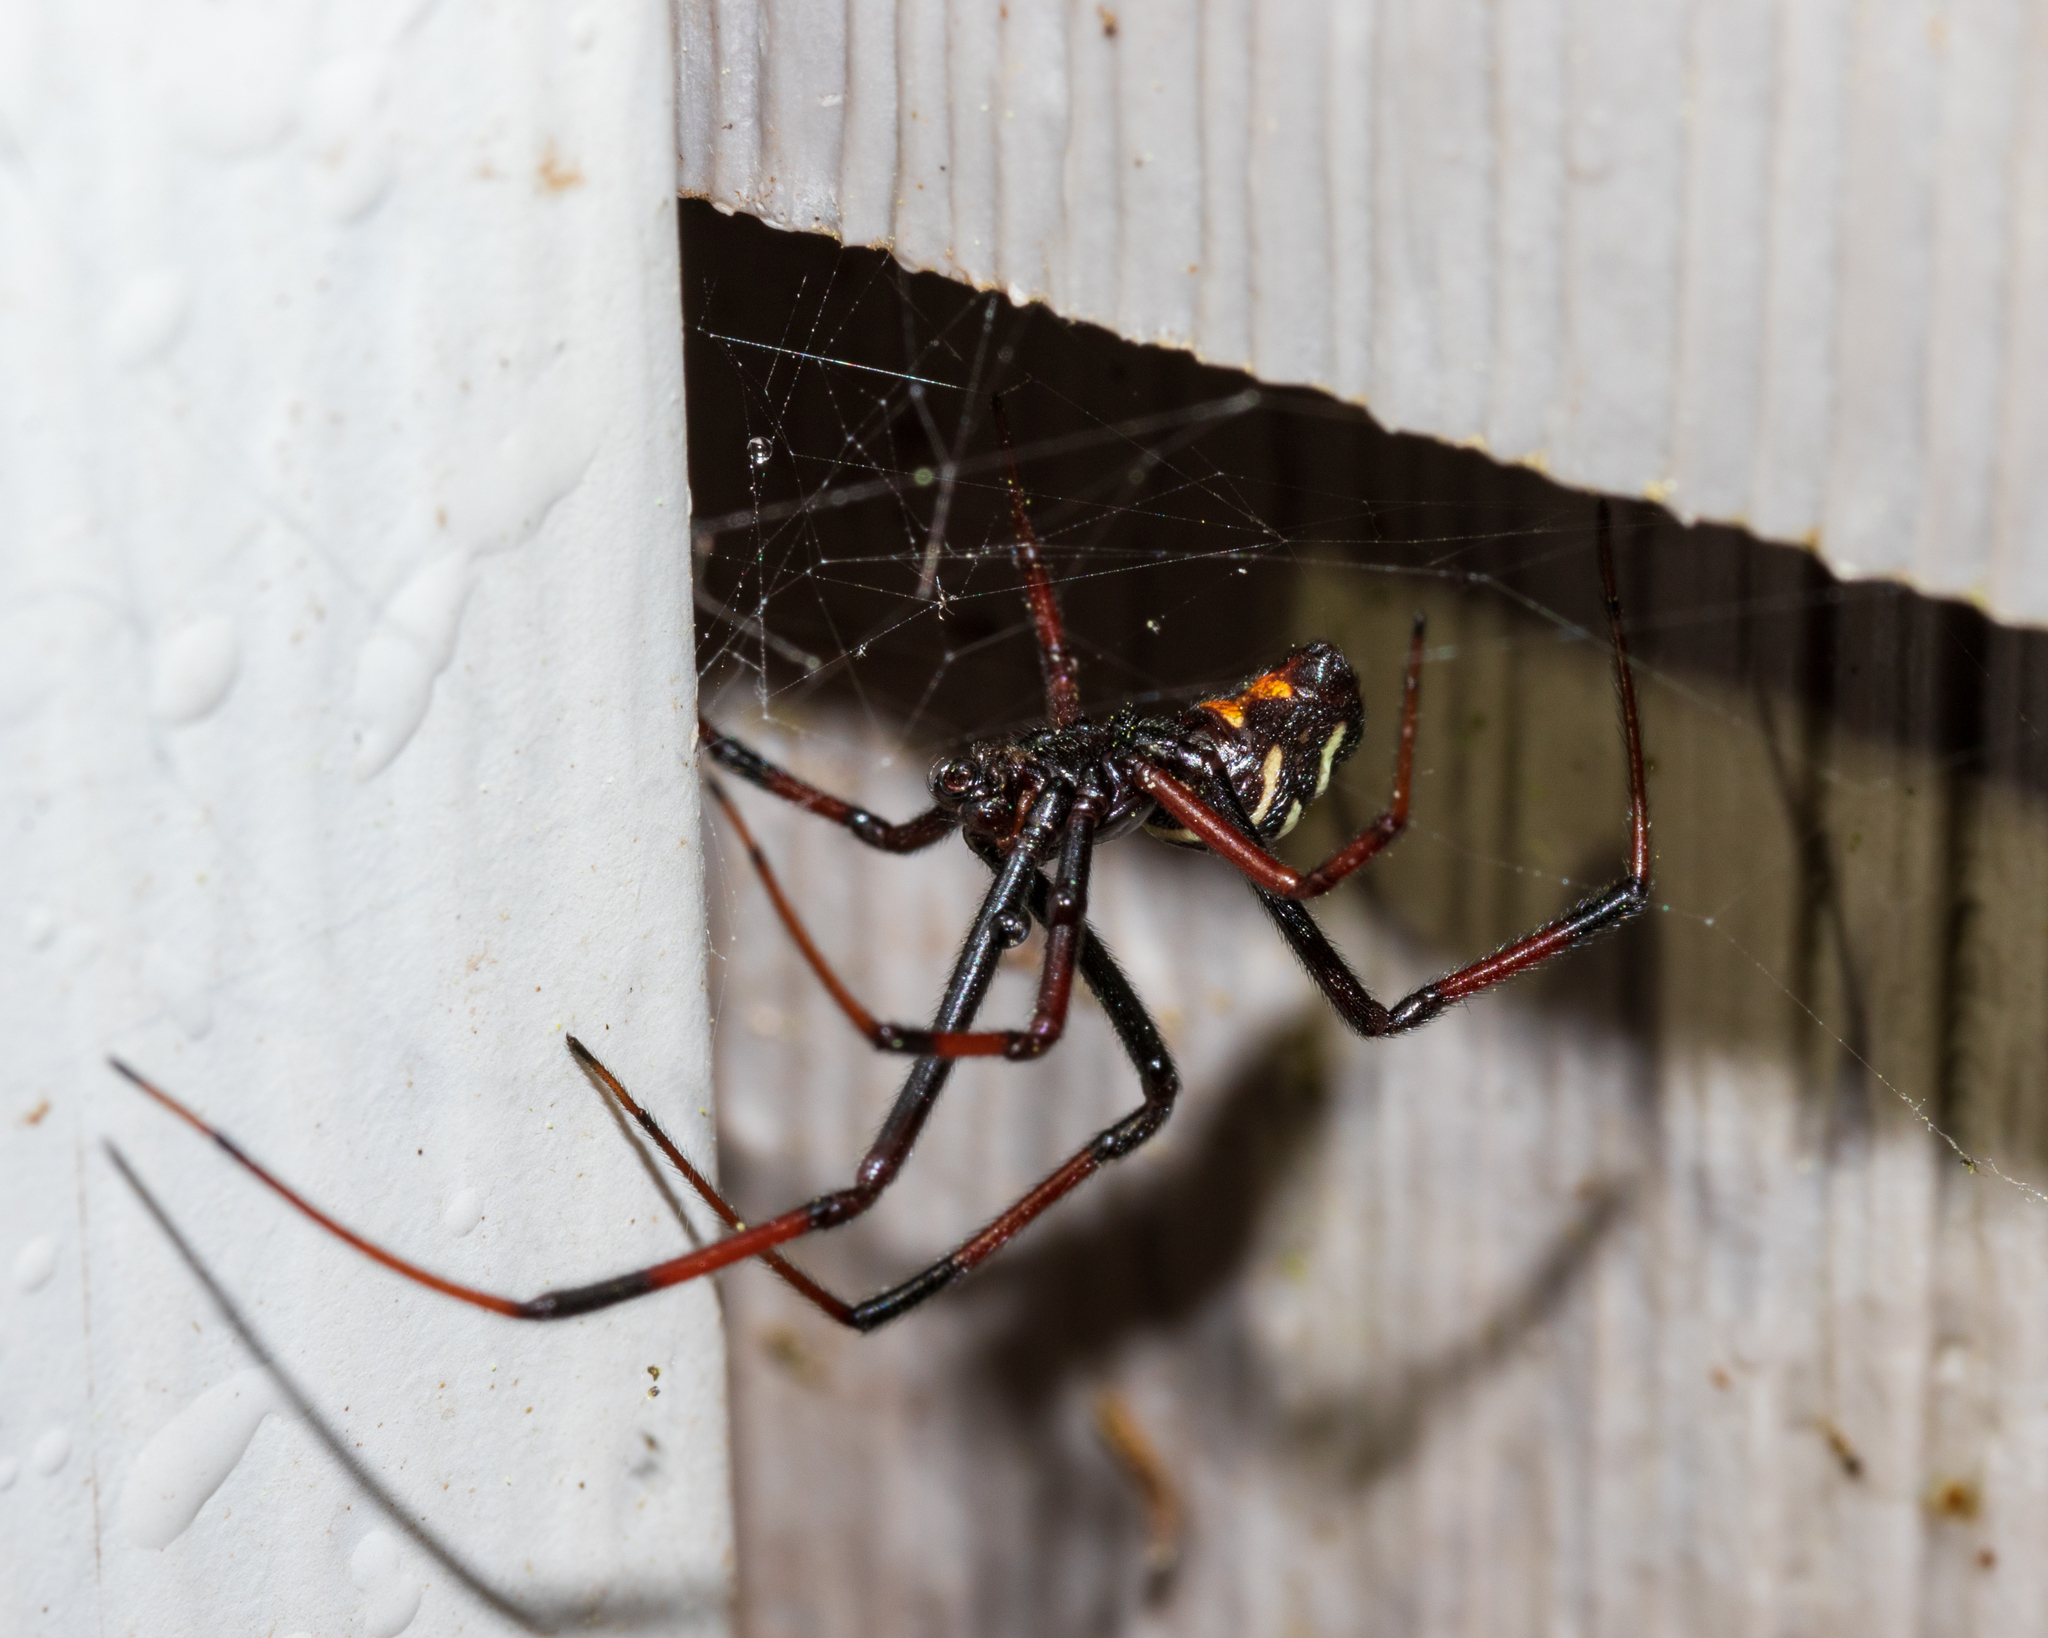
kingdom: Animalia
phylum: Arthropoda
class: Arachnida
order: Araneae
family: Theridiidae
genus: Latrodectus
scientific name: Latrodectus variolus
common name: Northern black widow
